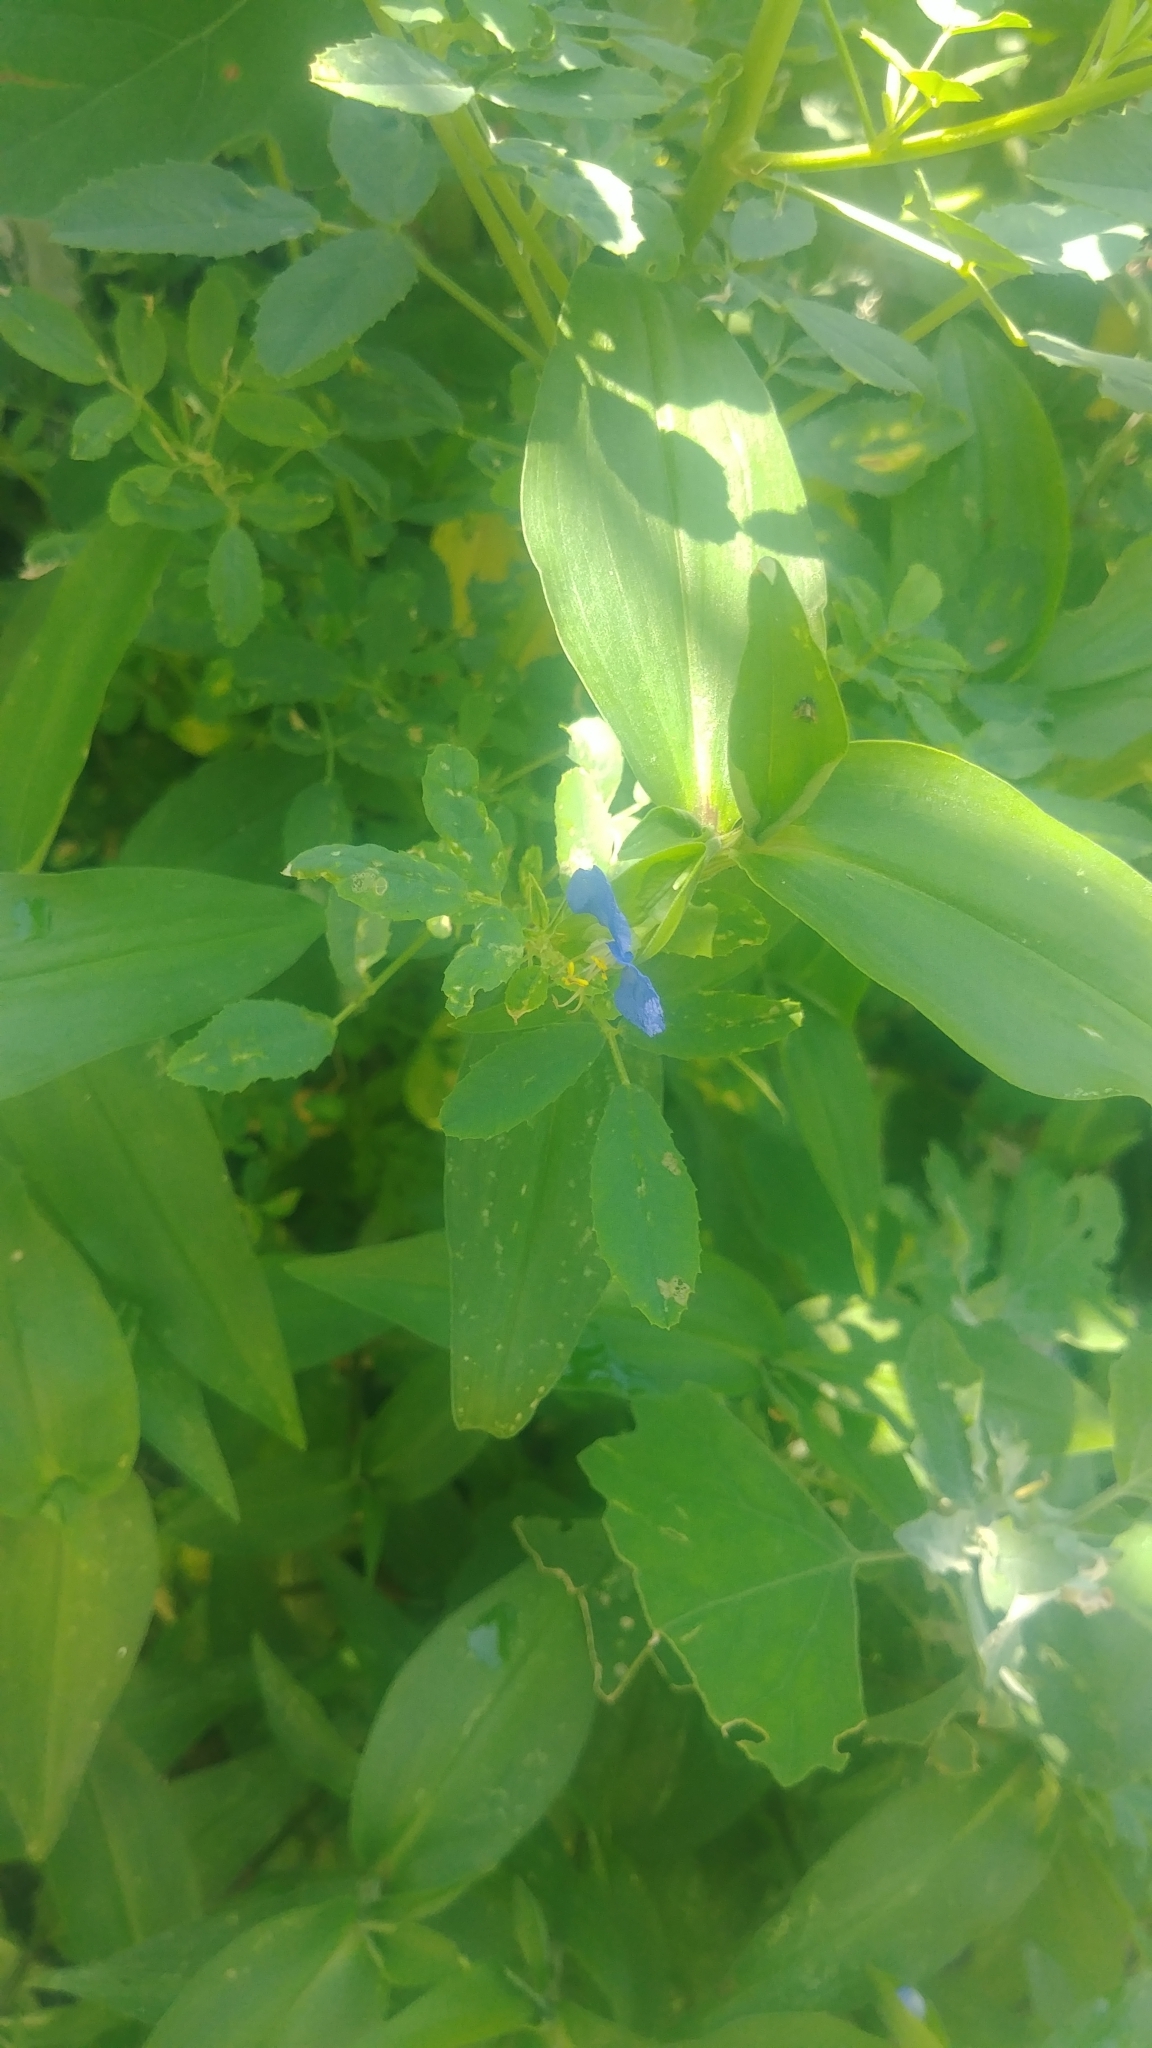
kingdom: Plantae
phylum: Tracheophyta
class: Liliopsida
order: Commelinales
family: Commelinaceae
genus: Commelina
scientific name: Commelina communis
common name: Asiatic dayflower
